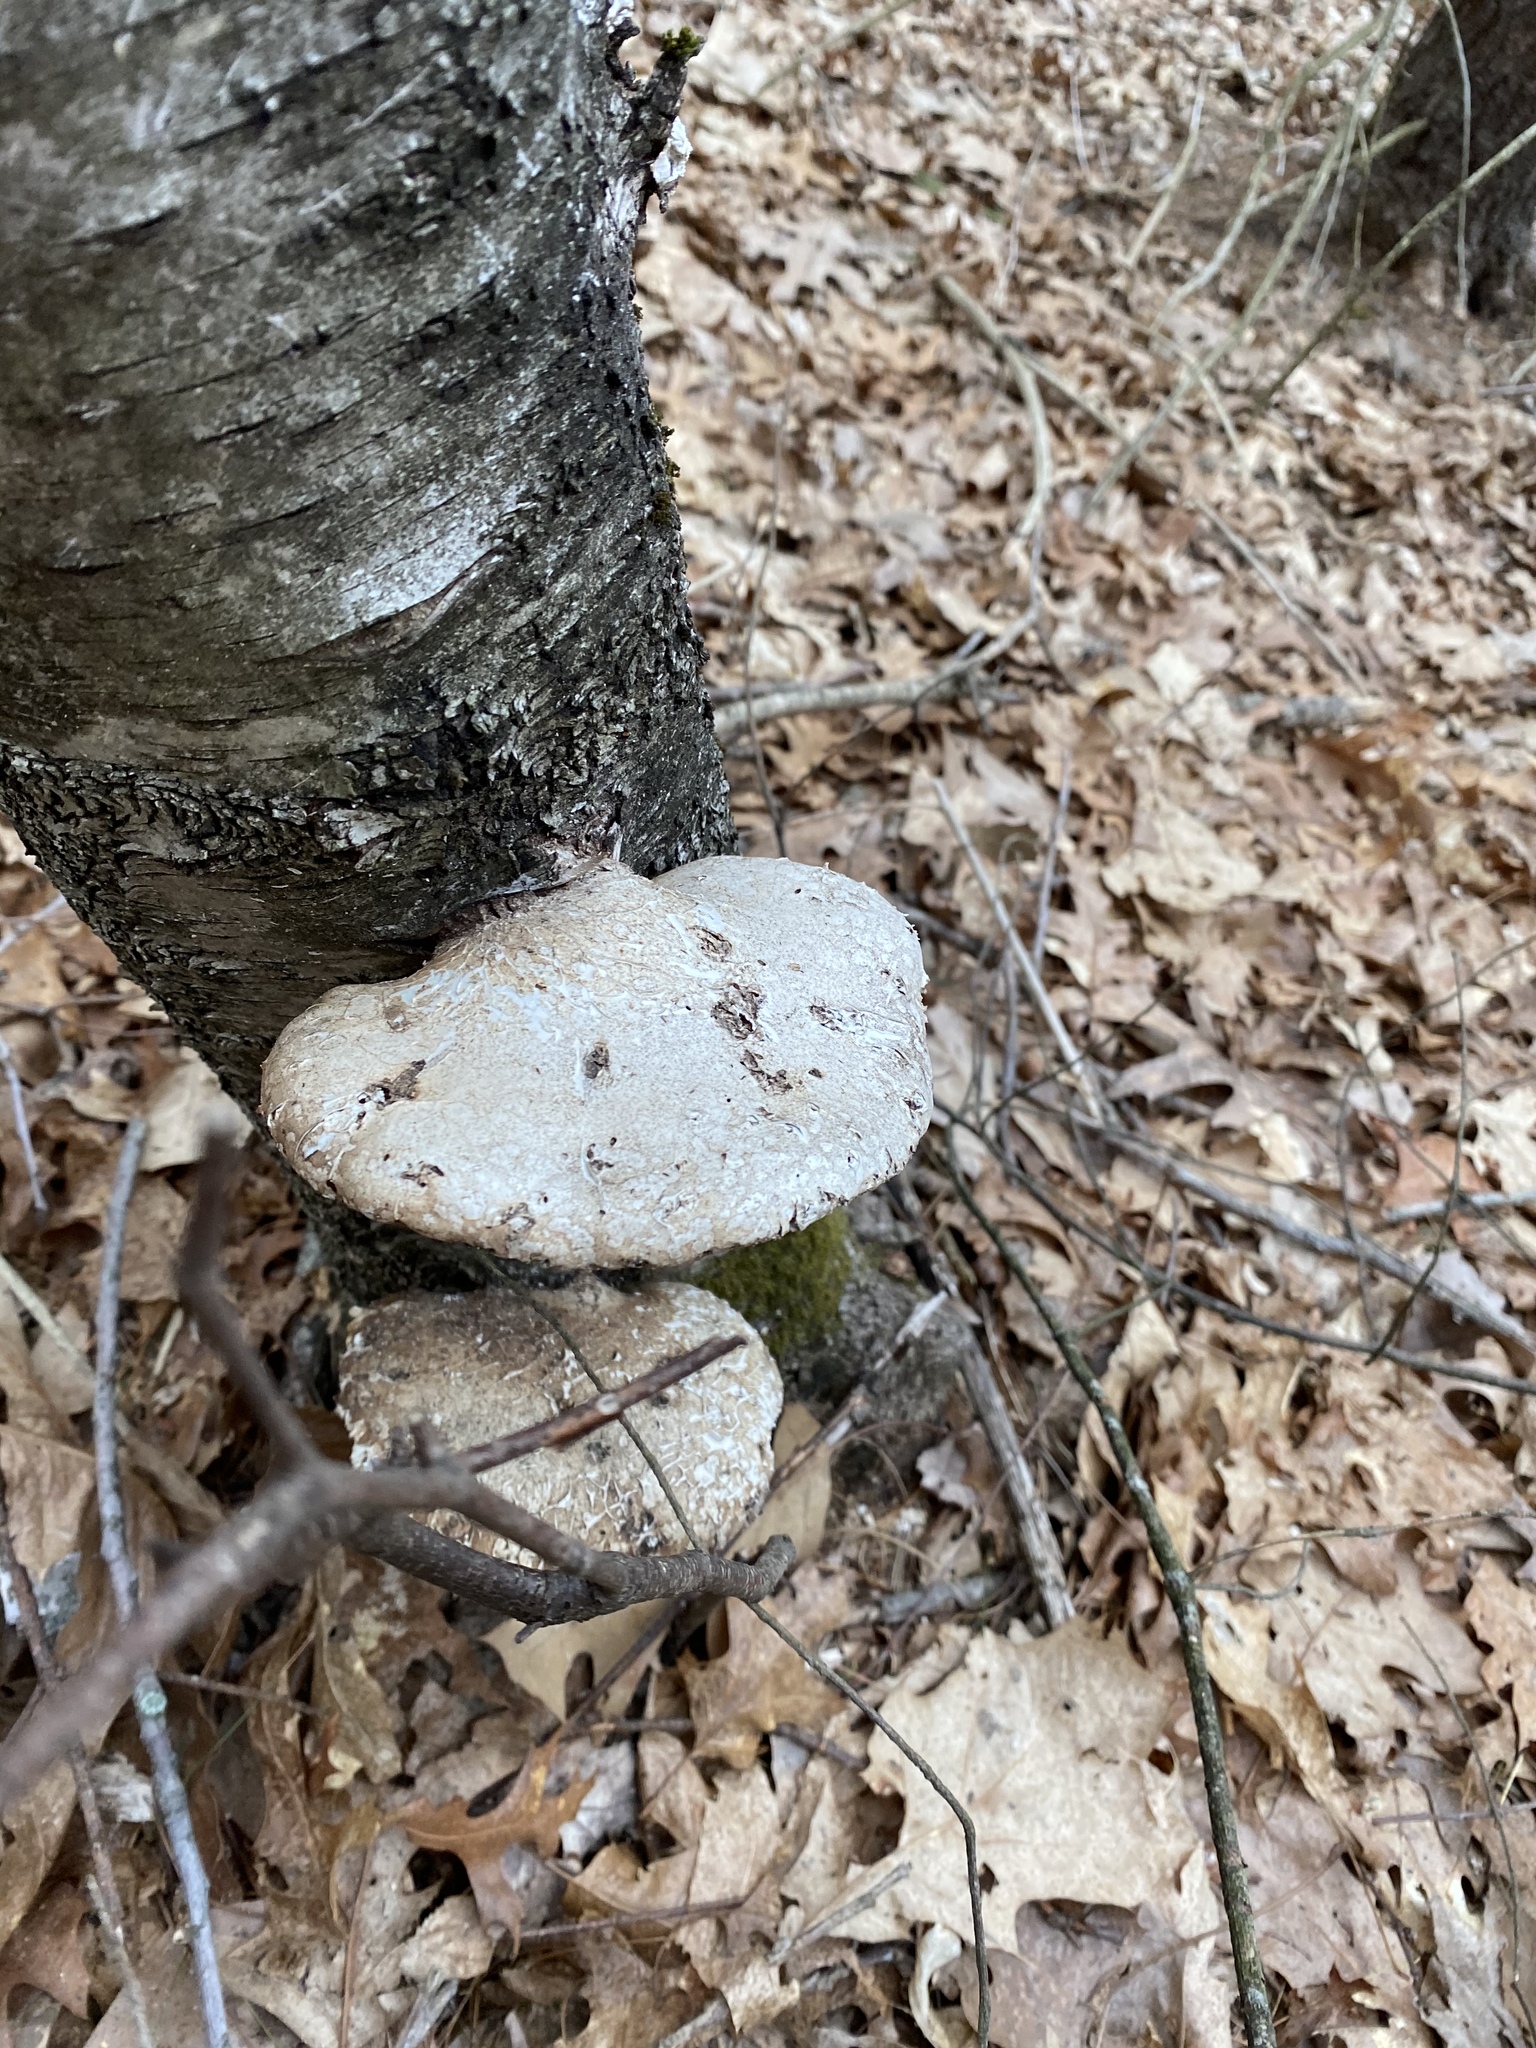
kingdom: Fungi
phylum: Basidiomycota
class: Agaricomycetes
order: Polyporales
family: Fomitopsidaceae
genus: Fomitopsis
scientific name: Fomitopsis betulina
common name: Birch polypore
